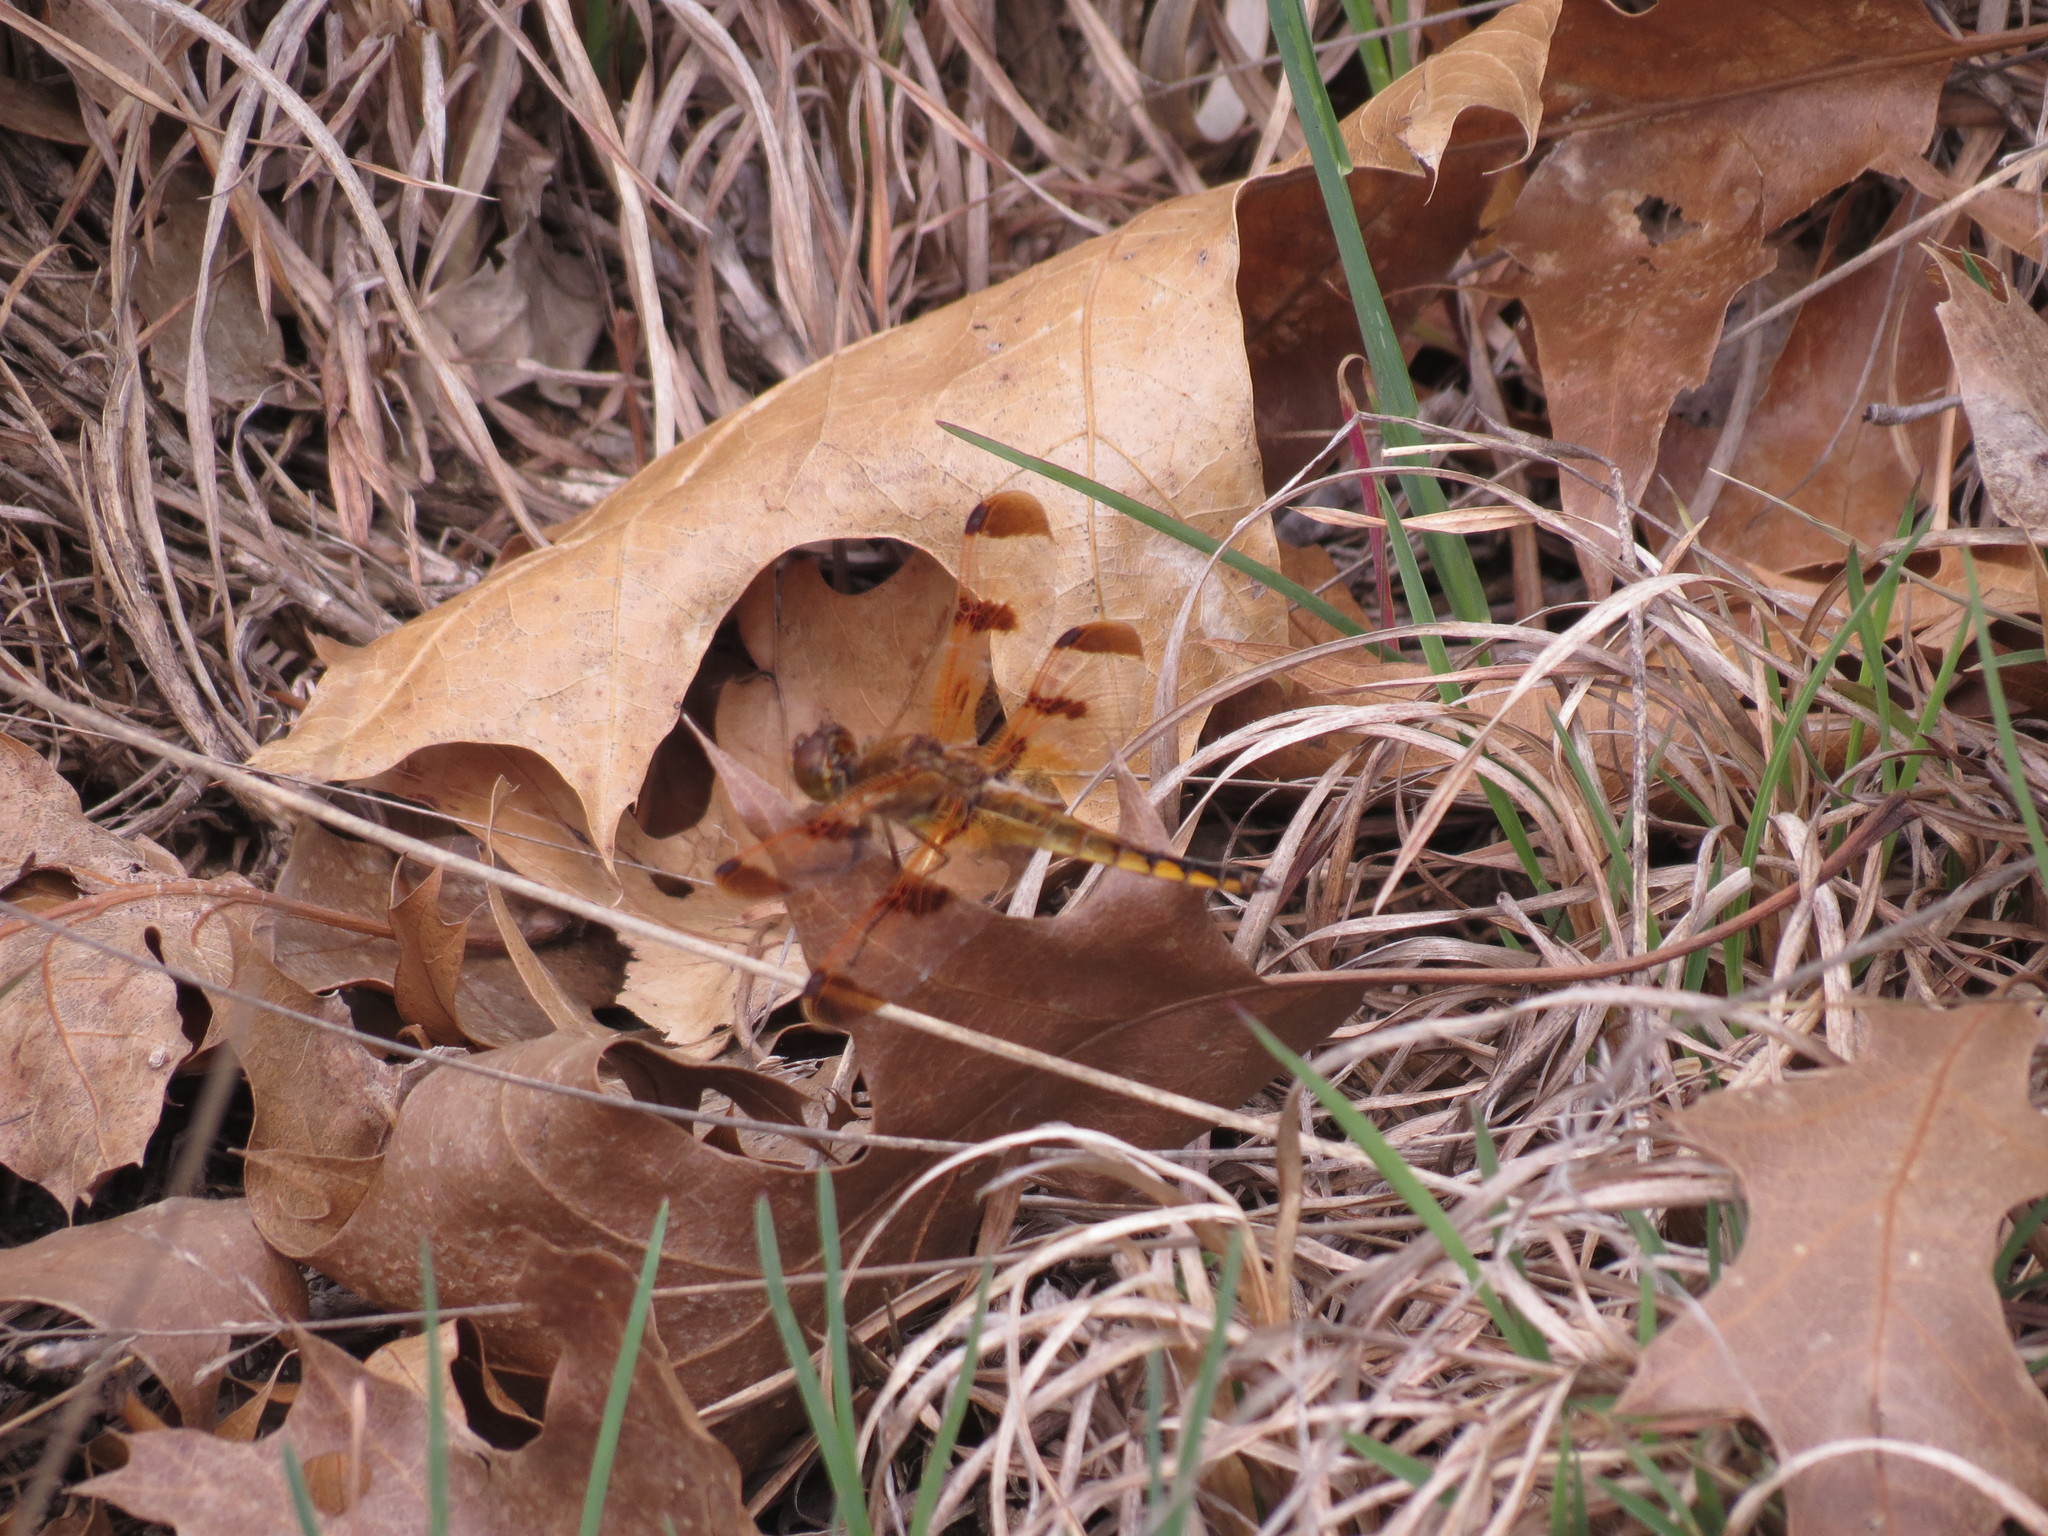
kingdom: Animalia
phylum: Arthropoda
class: Insecta
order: Odonata
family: Libellulidae
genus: Libellula
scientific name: Libellula semifasciata
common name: Painted skimmer
